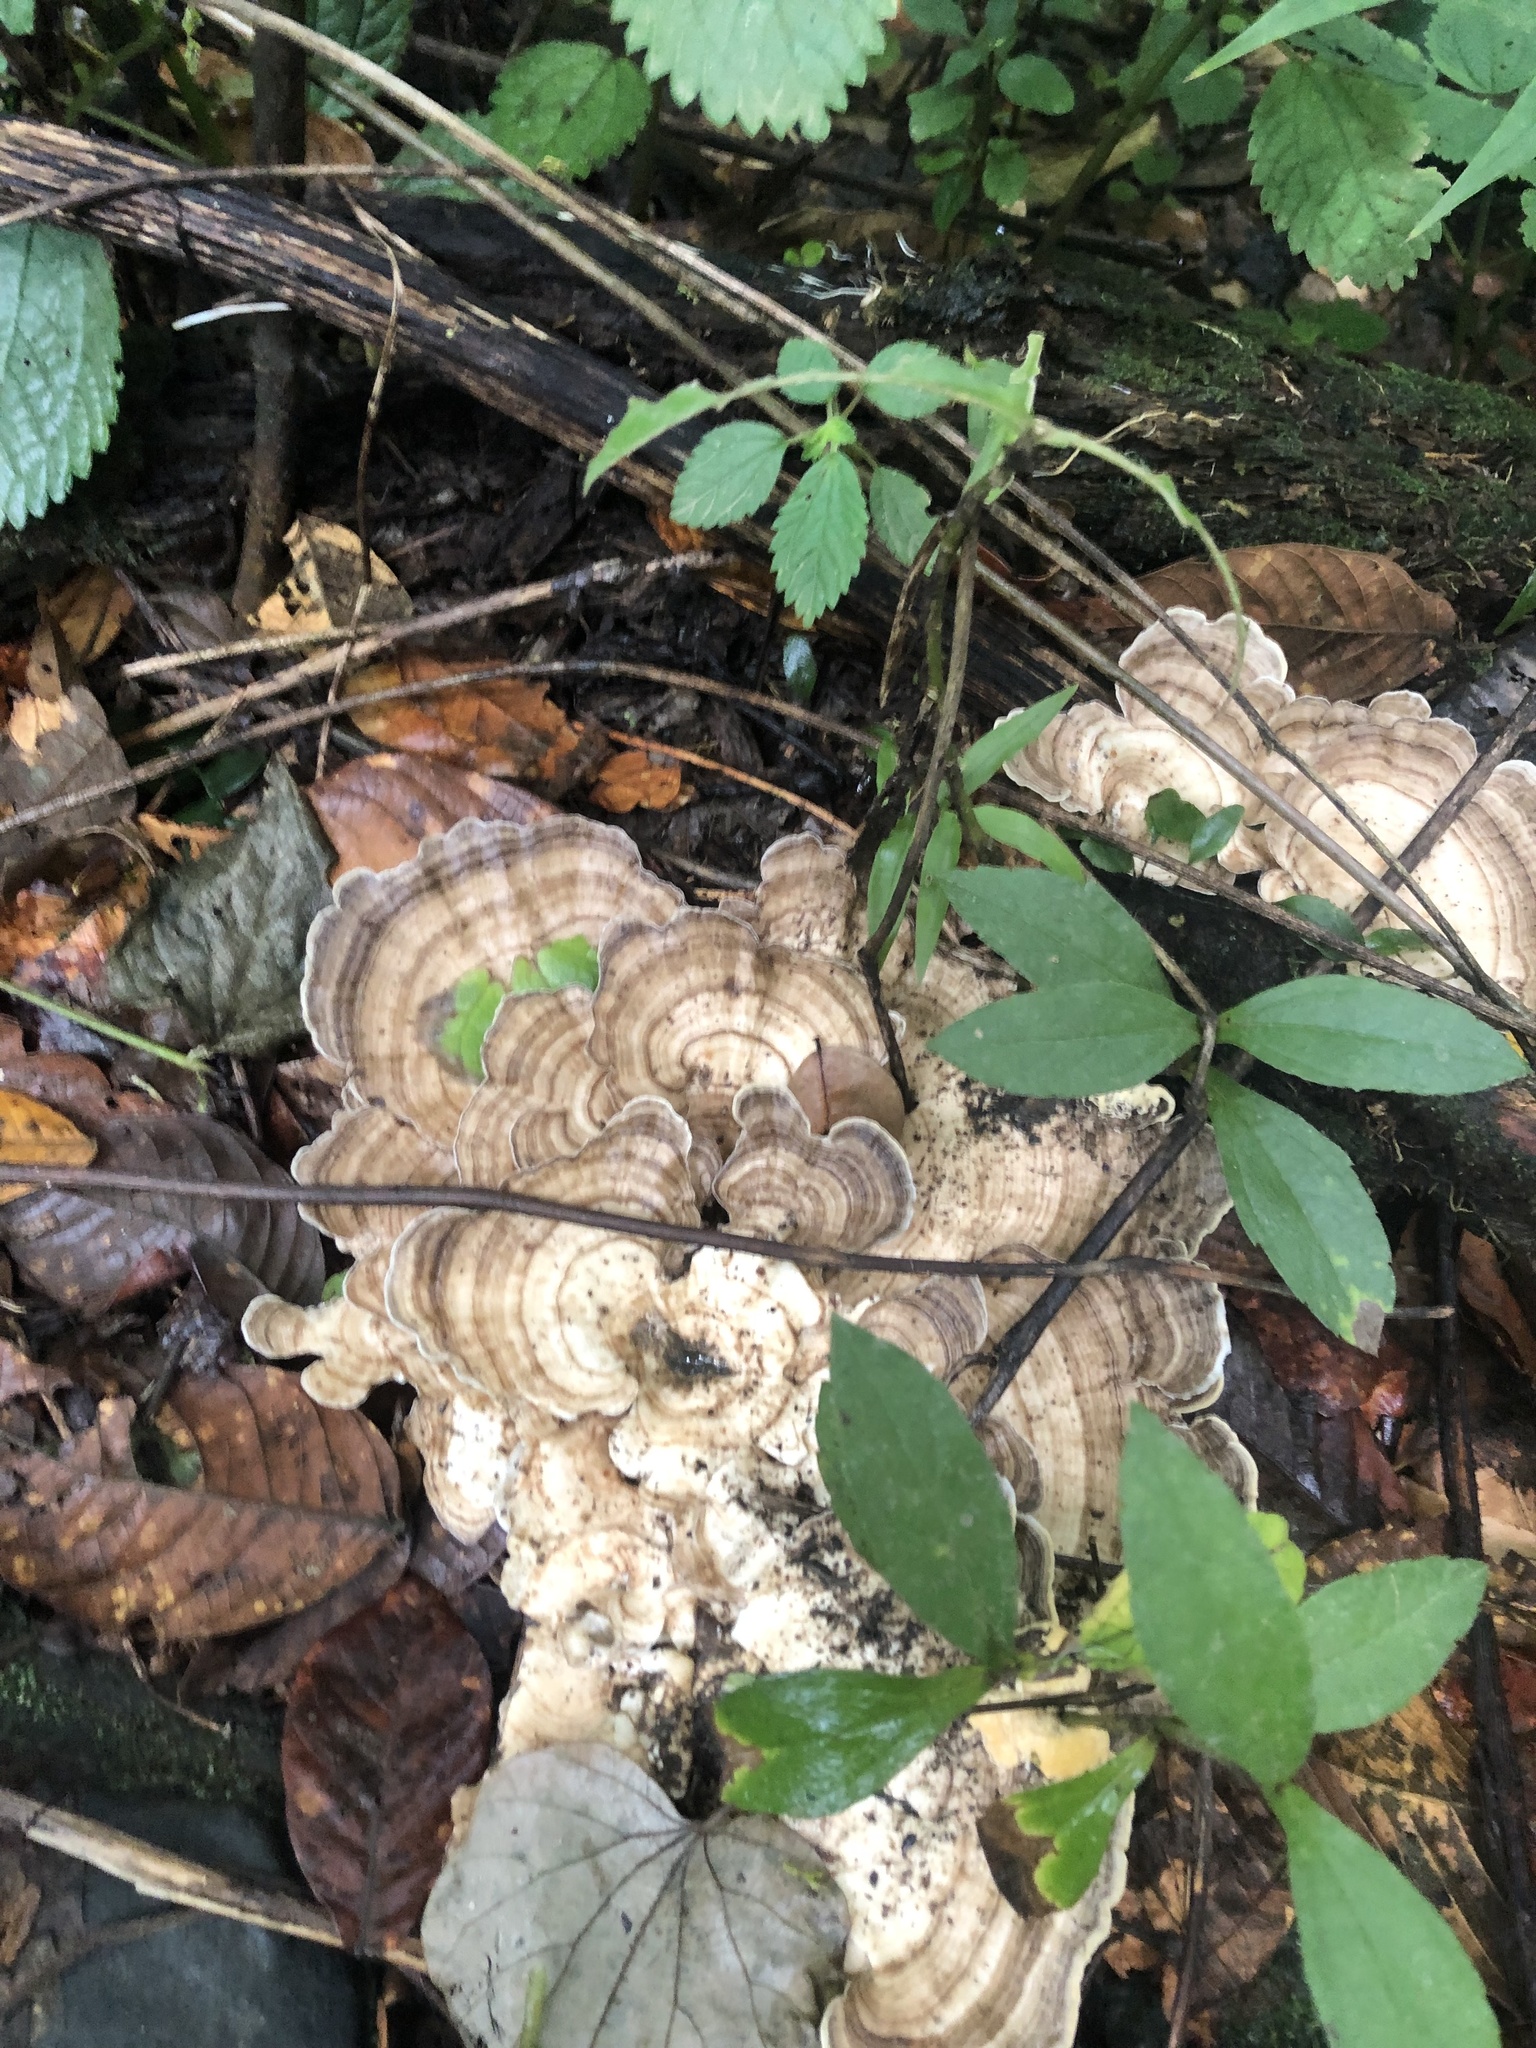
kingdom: Fungi
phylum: Basidiomycota
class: Agaricomycetes
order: Polyporales
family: Polyporaceae
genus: Cubamyces
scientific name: Cubamyces menziesii
